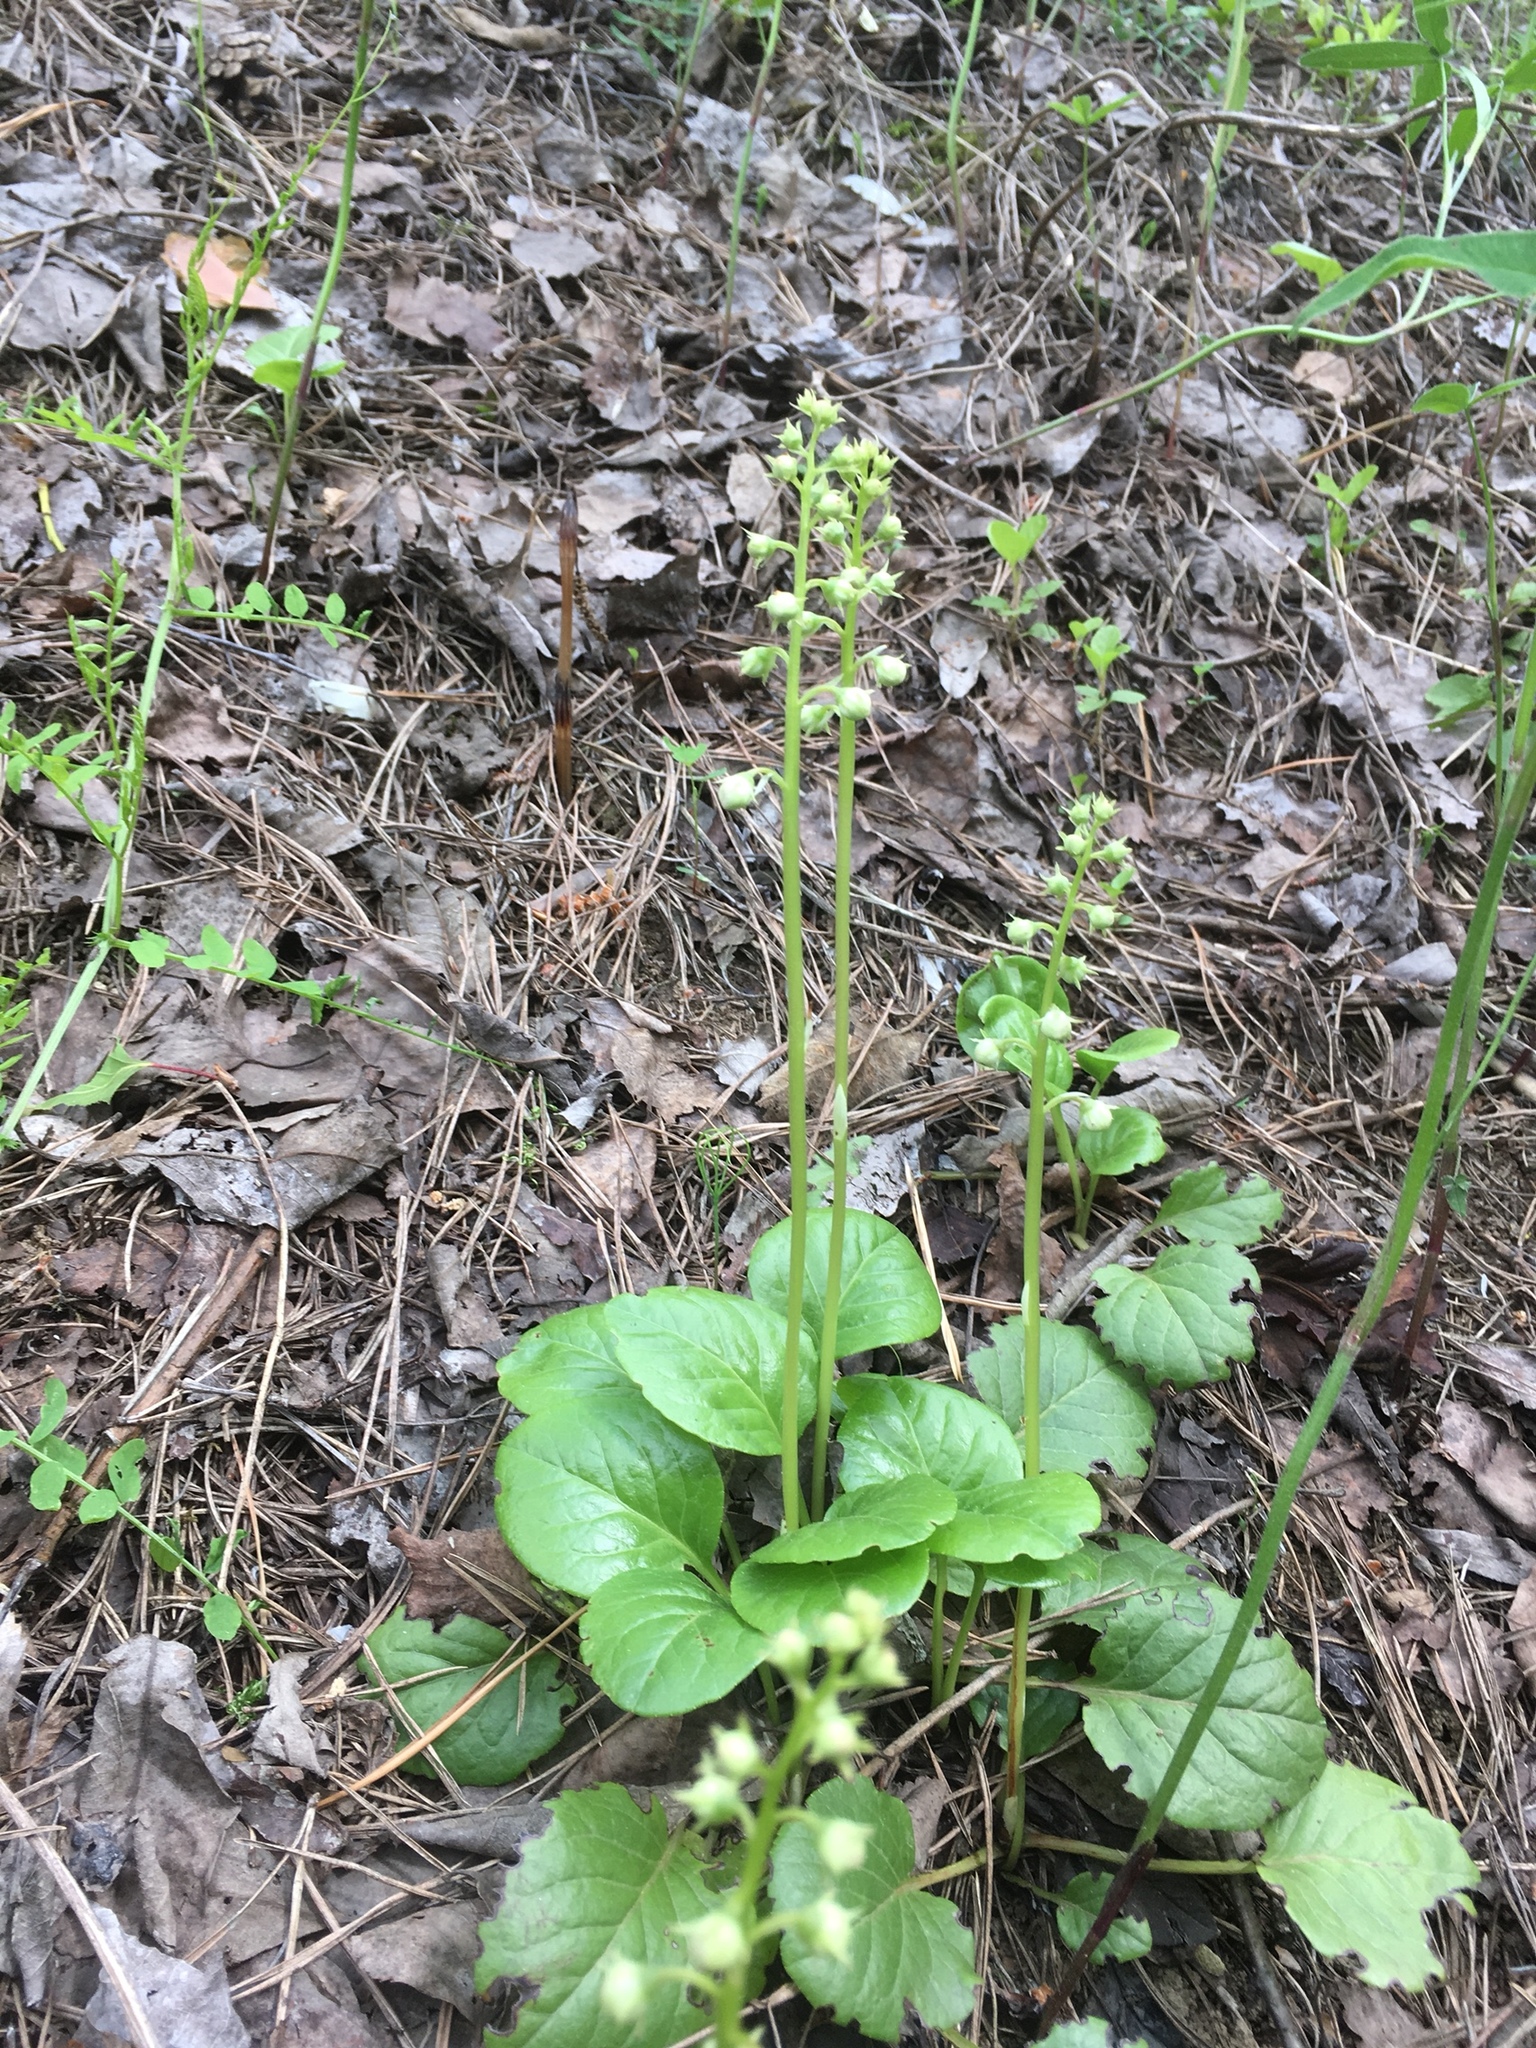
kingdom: Plantae
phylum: Tracheophyta
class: Magnoliopsida
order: Ericales
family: Ericaceae
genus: Pyrola
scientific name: Pyrola rotundifolia
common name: Round-leaved wintergreen
